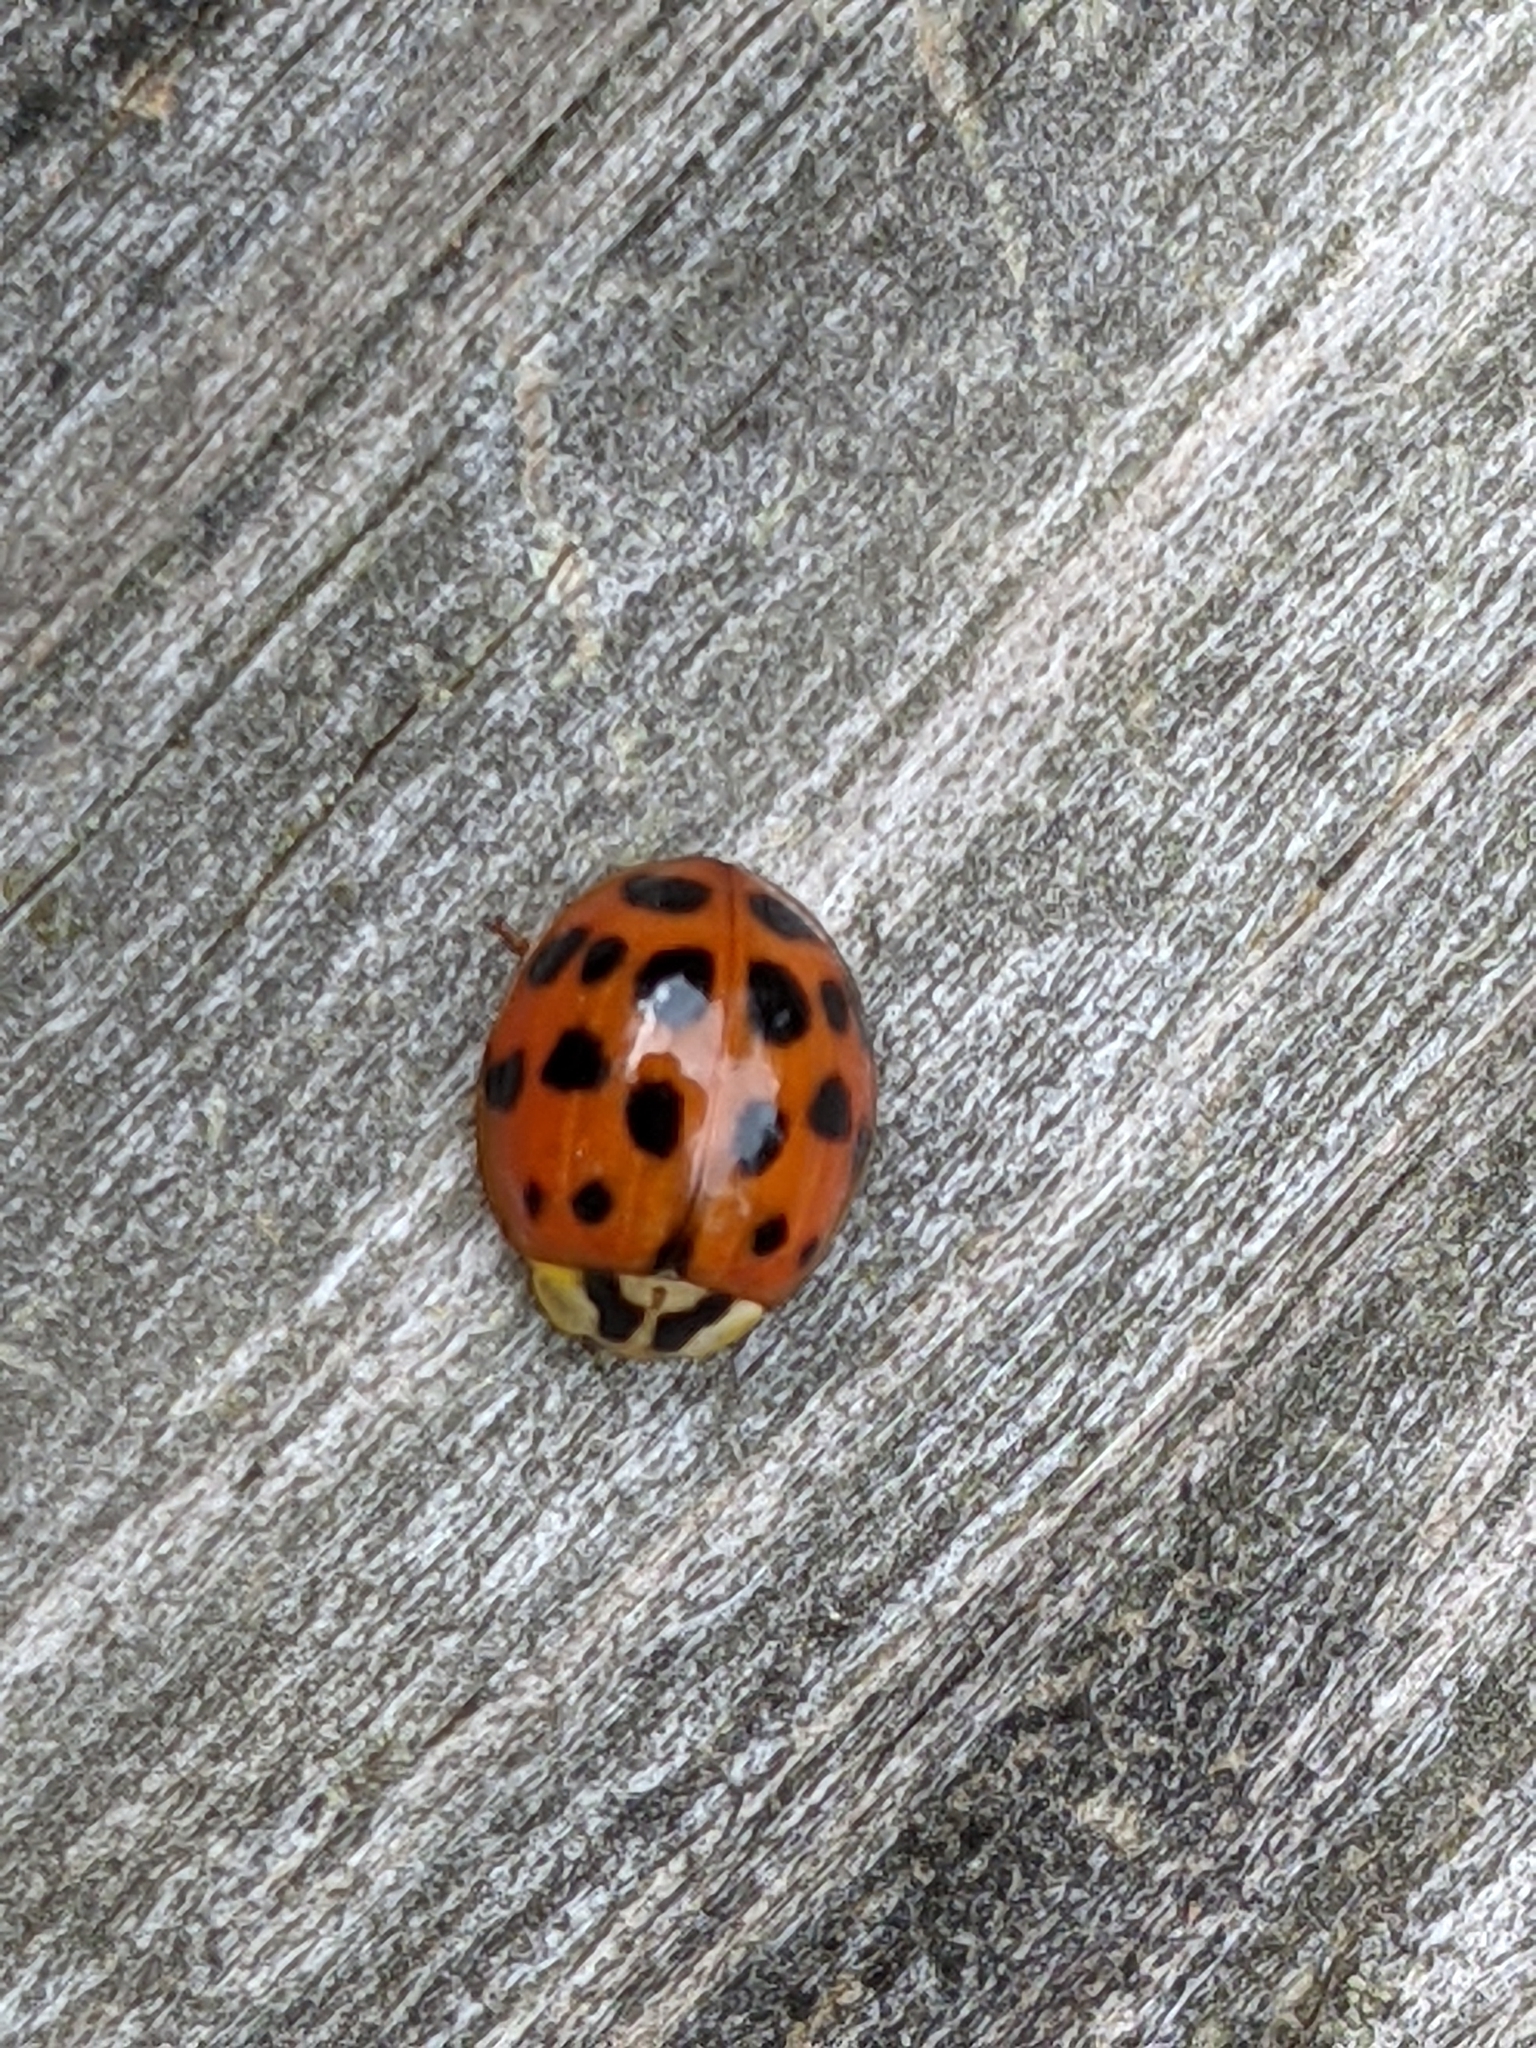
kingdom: Animalia
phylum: Arthropoda
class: Insecta
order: Coleoptera
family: Coccinellidae
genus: Harmonia
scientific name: Harmonia axyridis
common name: Harlequin ladybird
